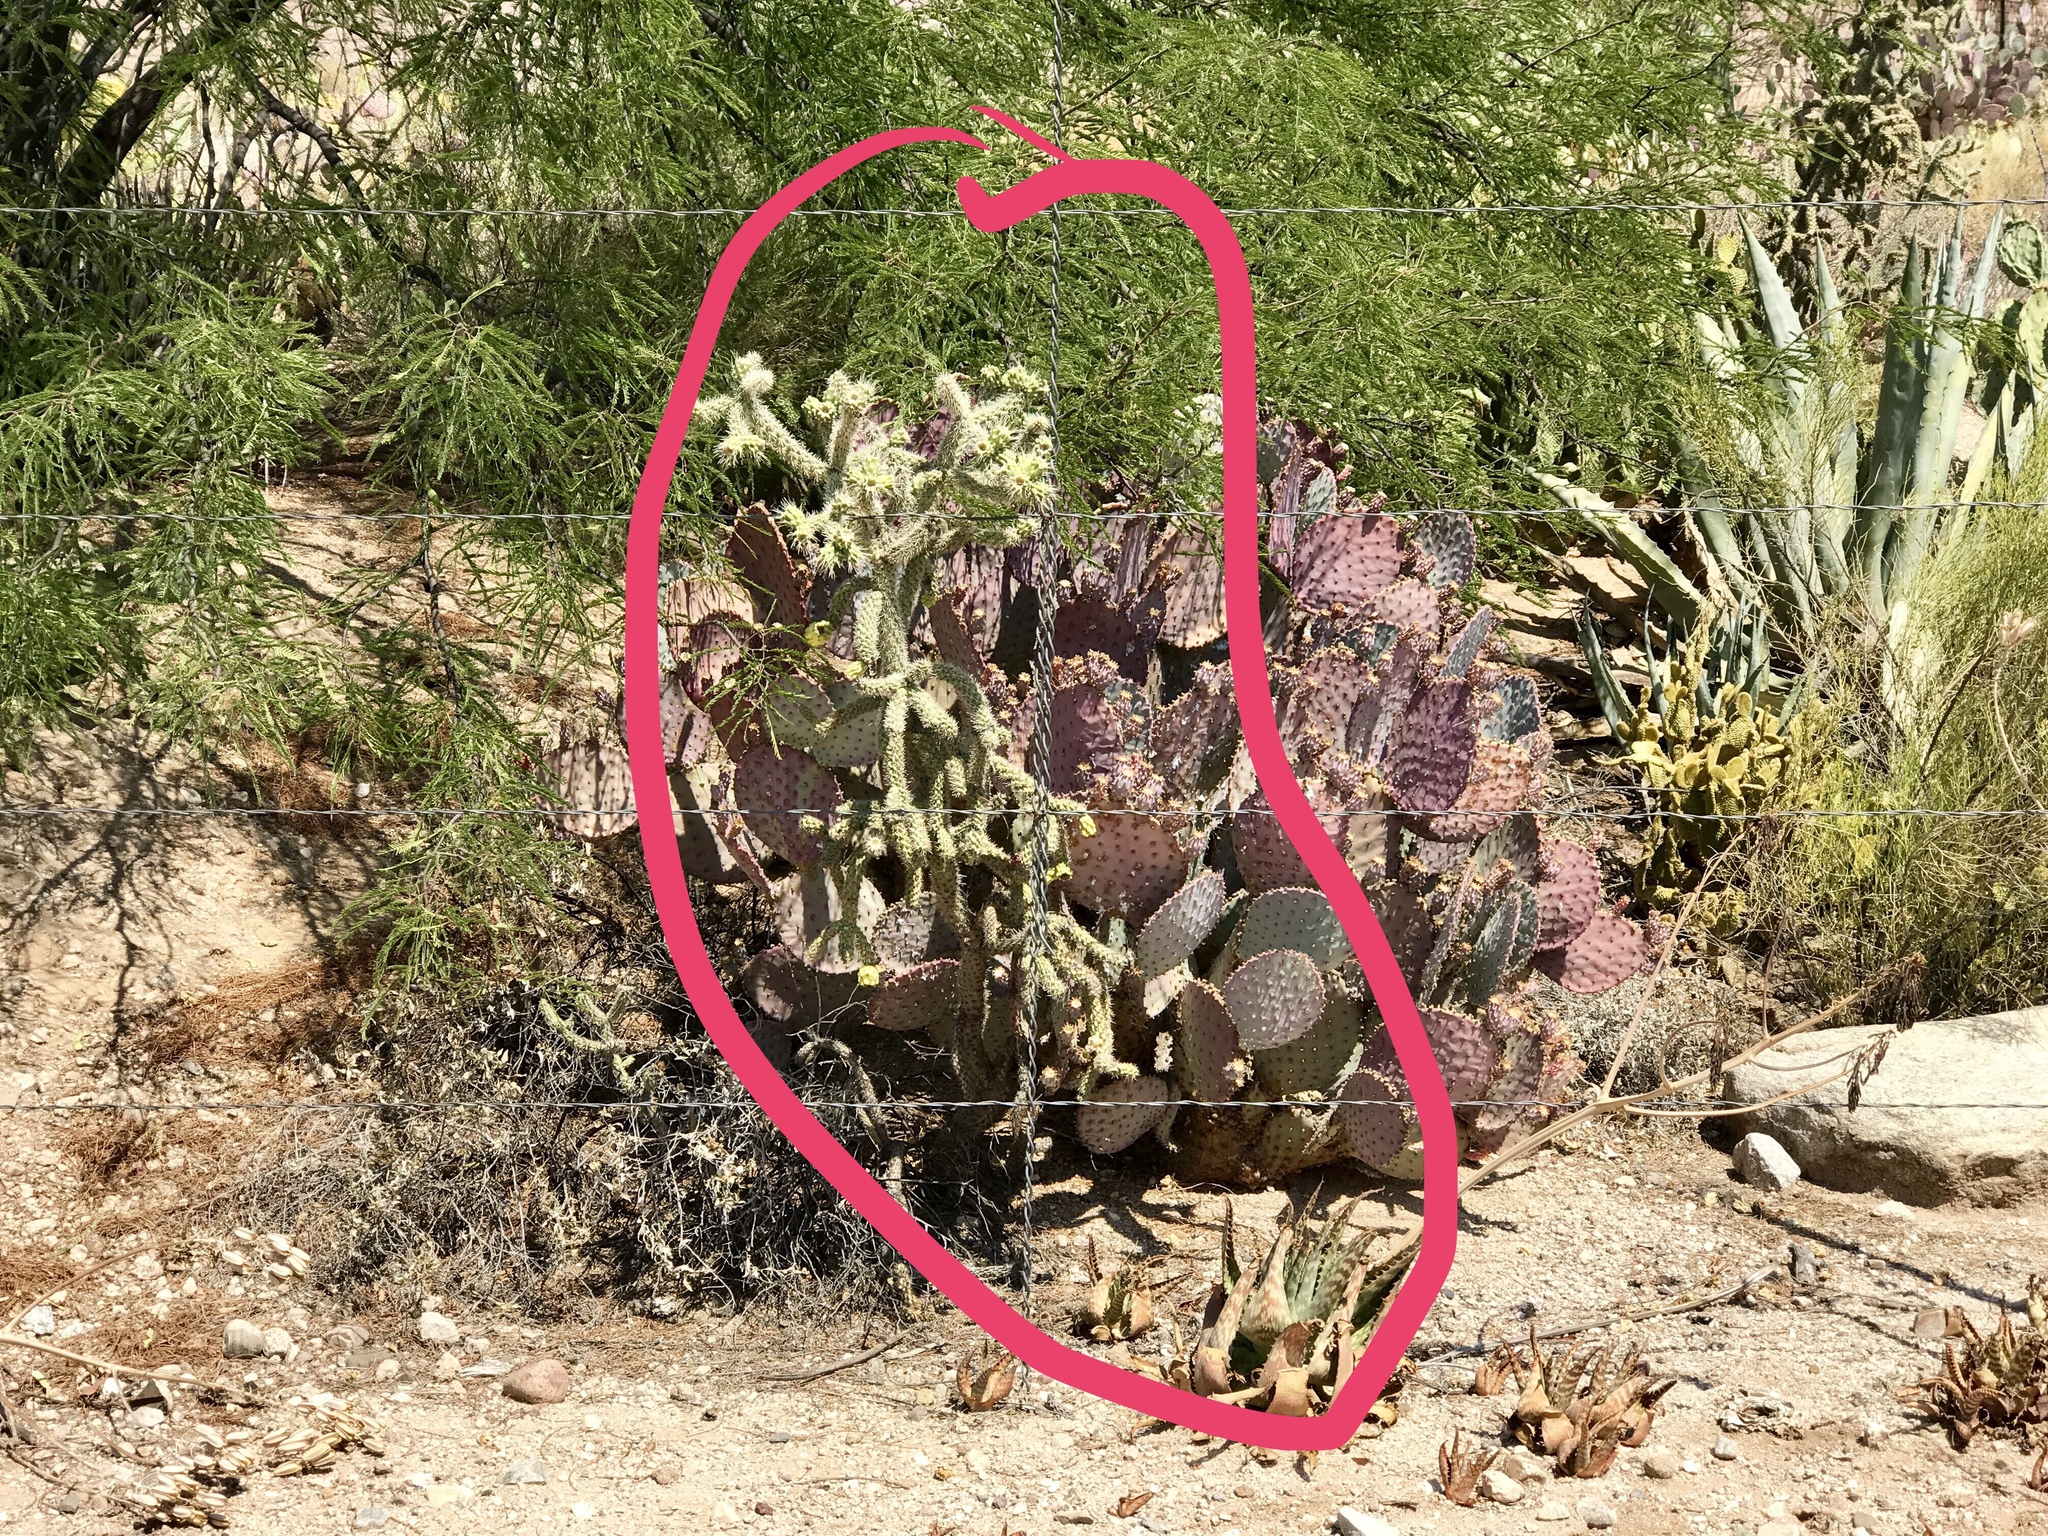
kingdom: Plantae
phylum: Tracheophyta
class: Magnoliopsida
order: Caryophyllales
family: Cactaceae
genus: Cylindropuntia
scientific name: Cylindropuntia fulgida
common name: Jumping cholla
